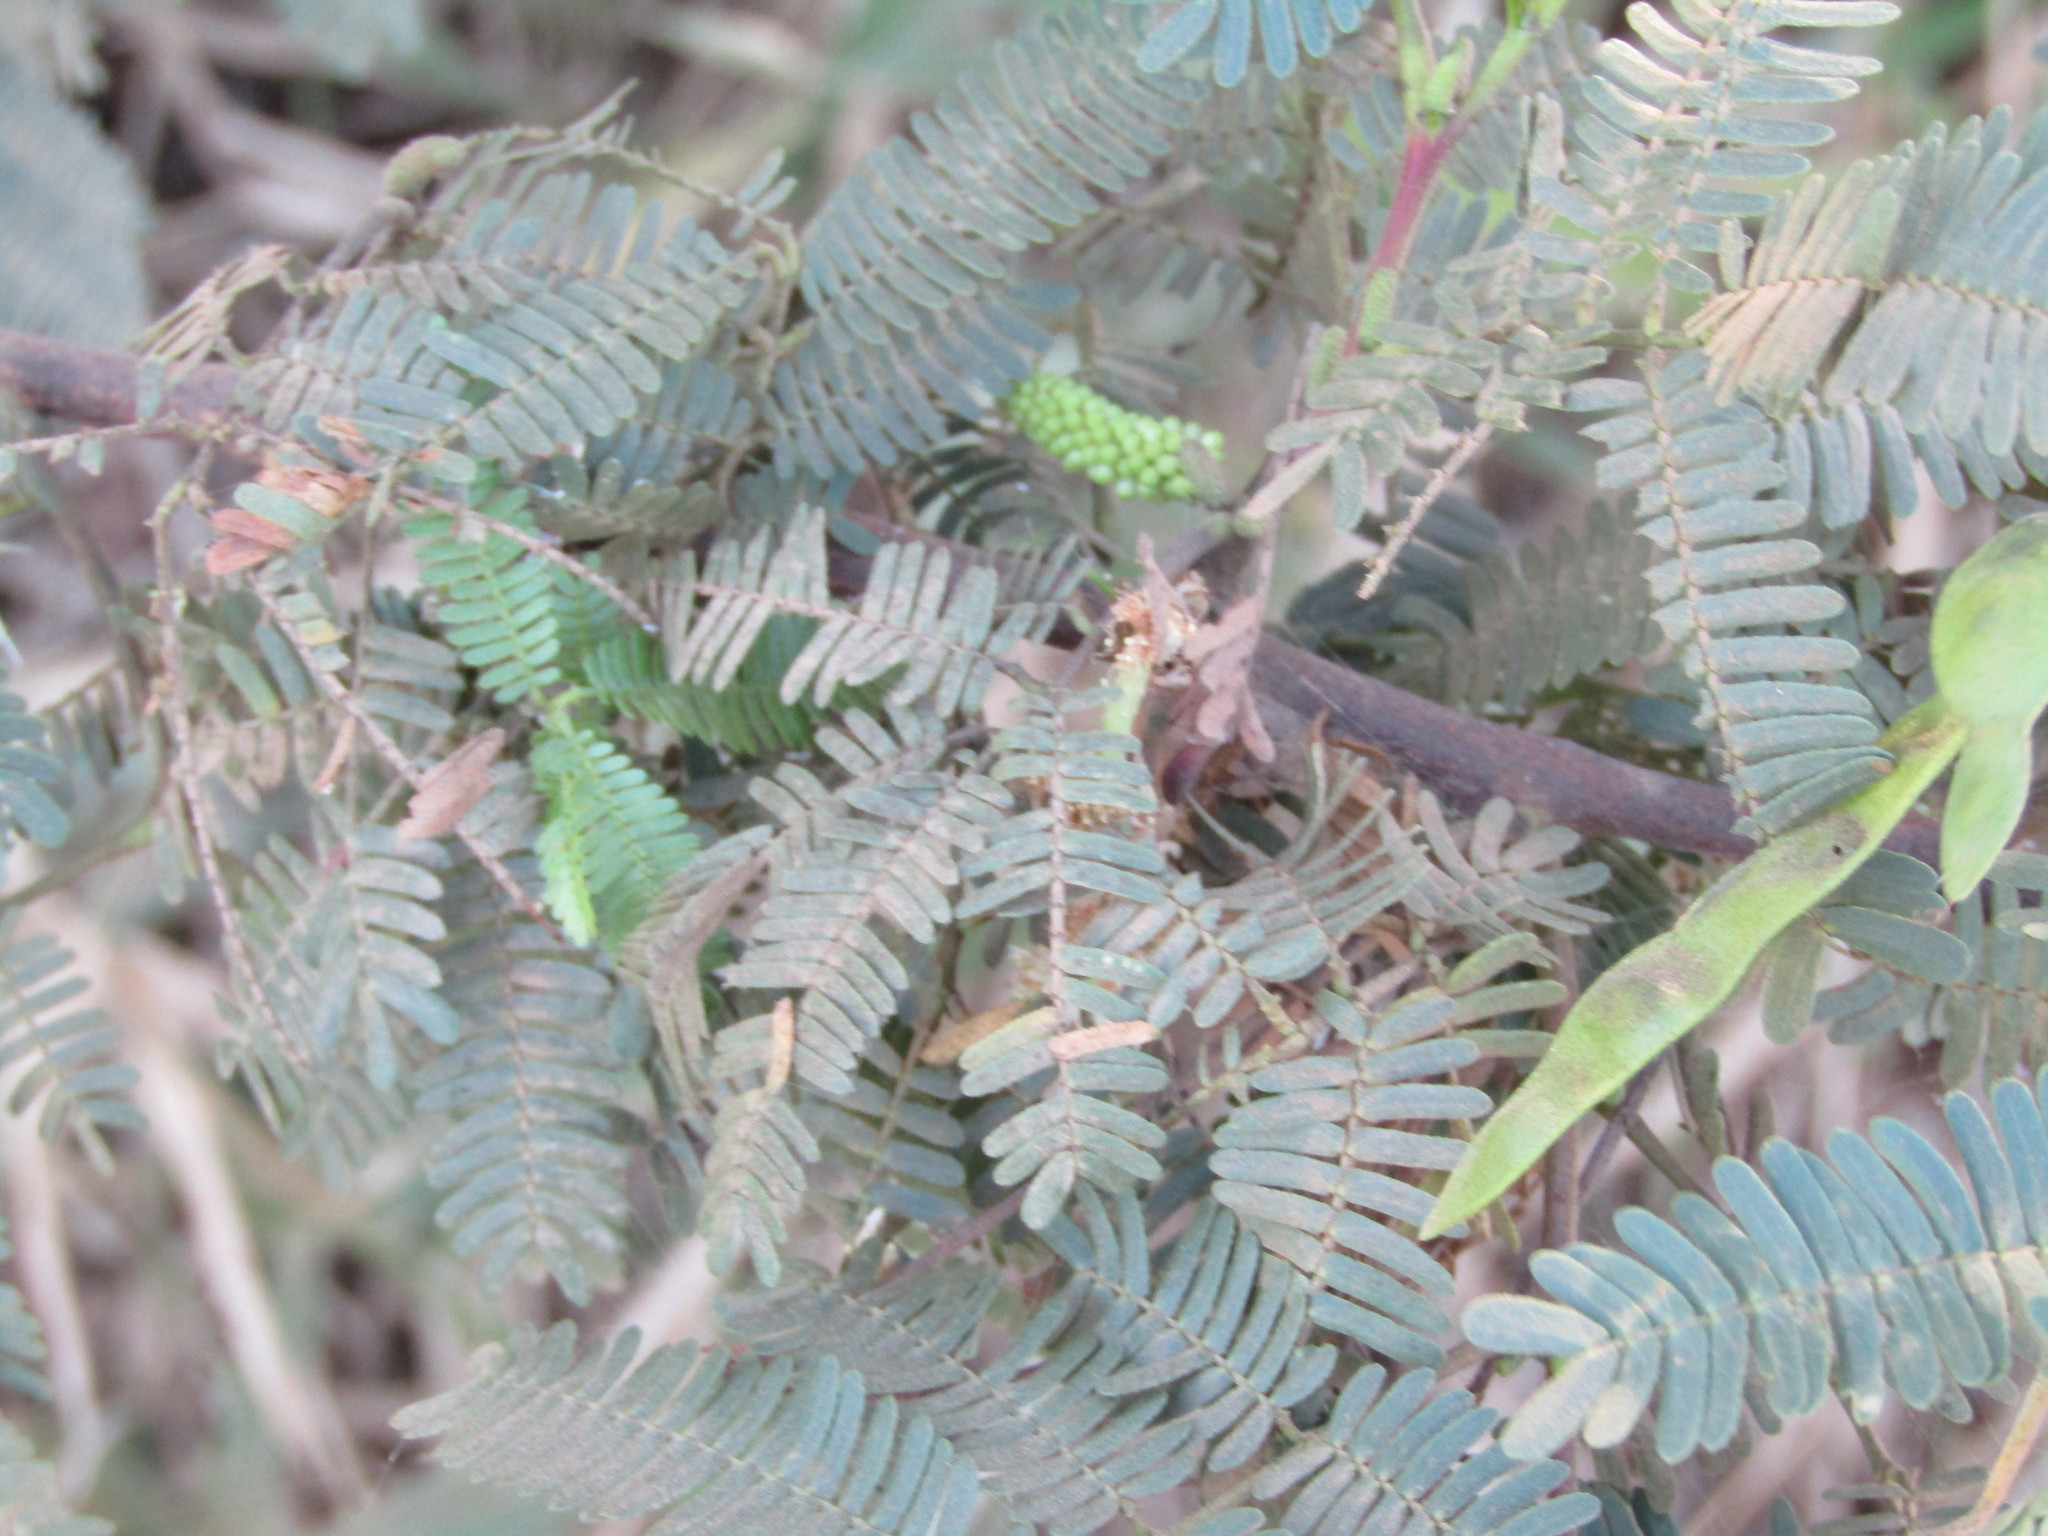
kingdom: Plantae
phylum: Tracheophyta
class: Magnoliopsida
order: Fabales
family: Fabaceae
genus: Mimosa
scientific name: Mimosa tenuiflora
